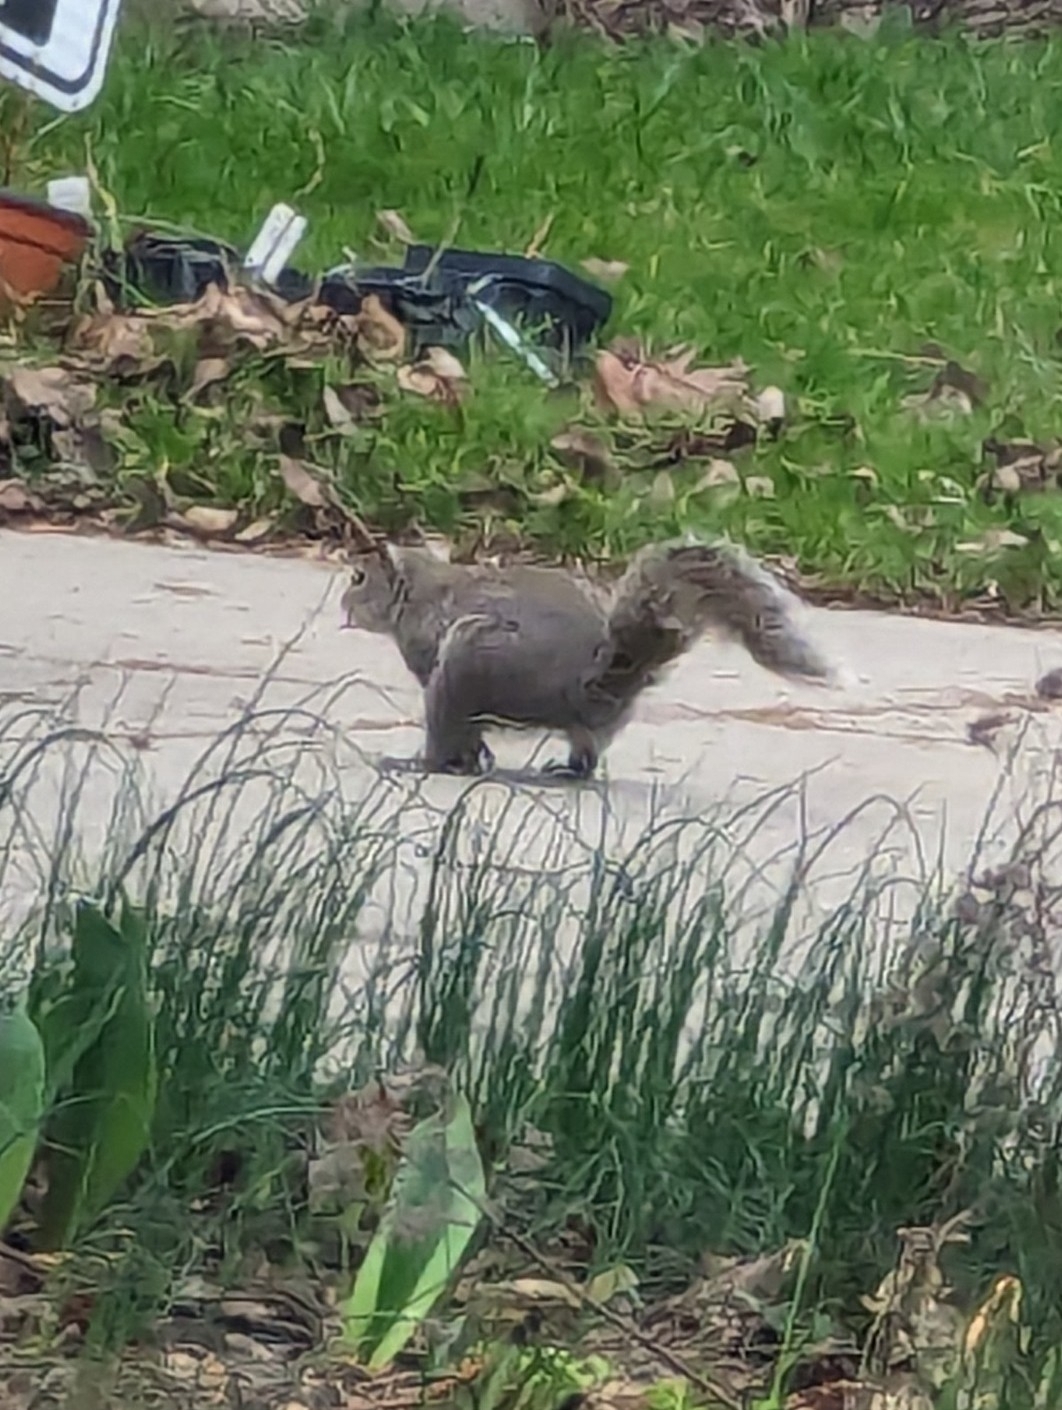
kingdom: Animalia
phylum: Chordata
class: Mammalia
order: Rodentia
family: Sciuridae
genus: Sciurus
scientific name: Sciurus carolinensis
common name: Eastern gray squirrel
